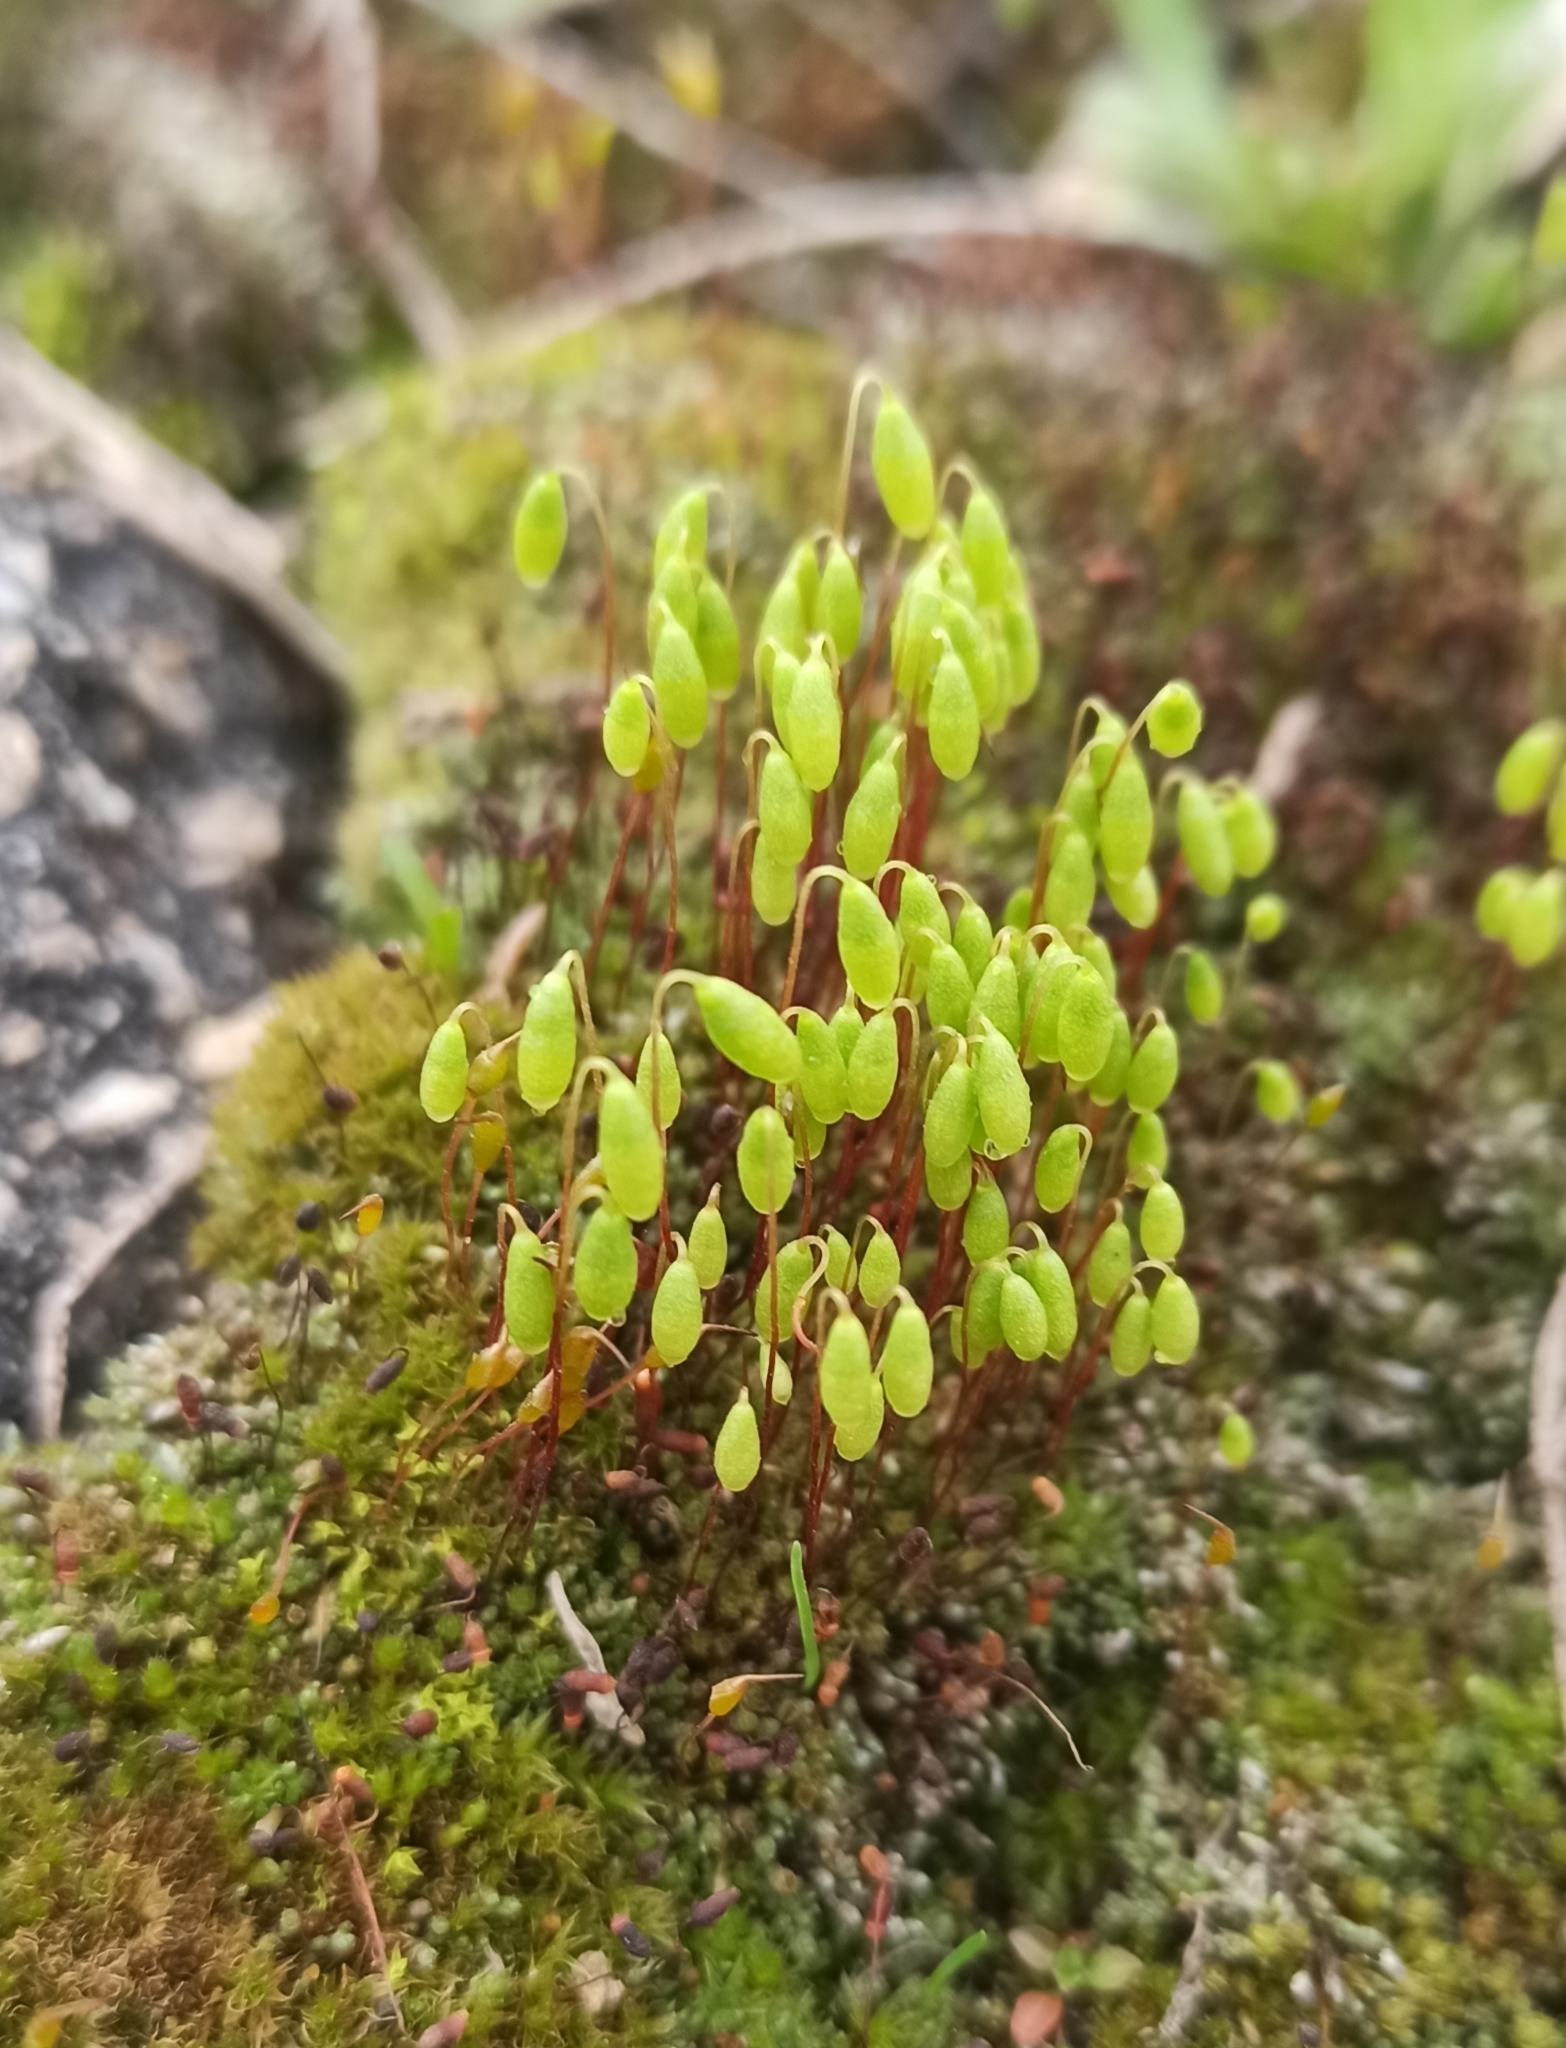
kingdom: Plantae
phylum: Bryophyta
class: Bryopsida
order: Bryales
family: Mniaceae
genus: Pohlia
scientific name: Pohlia nutans
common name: Nodding thread-moss
